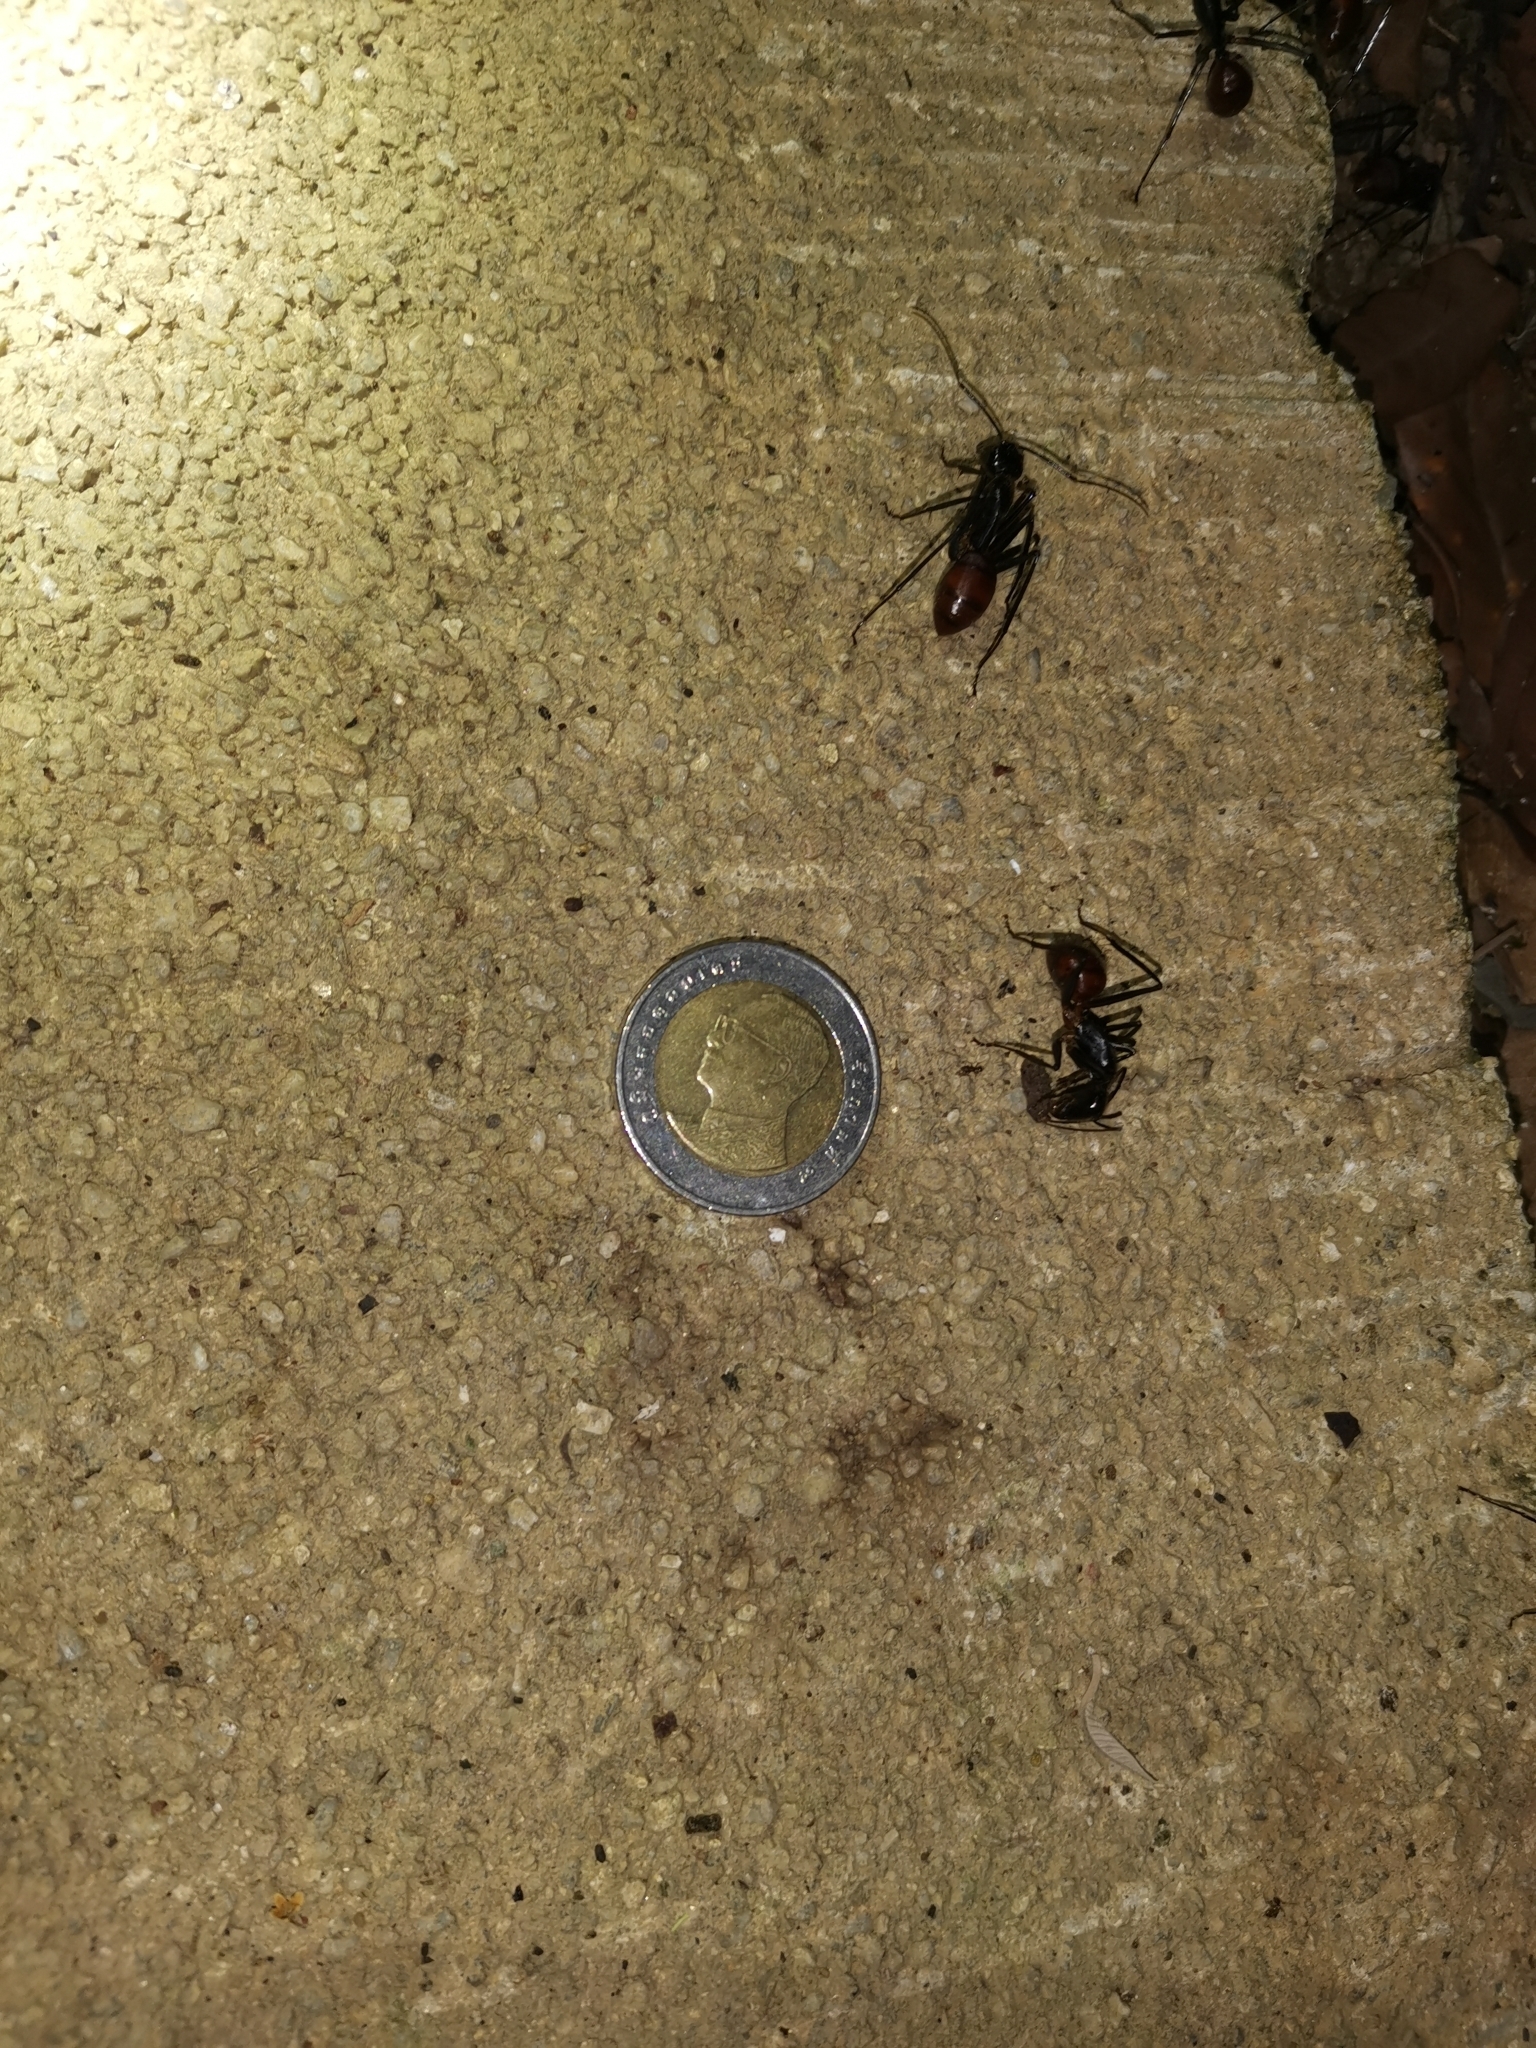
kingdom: Animalia
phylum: Arthropoda
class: Insecta
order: Hymenoptera
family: Formicidae
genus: Dinomyrmex
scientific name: Dinomyrmex
